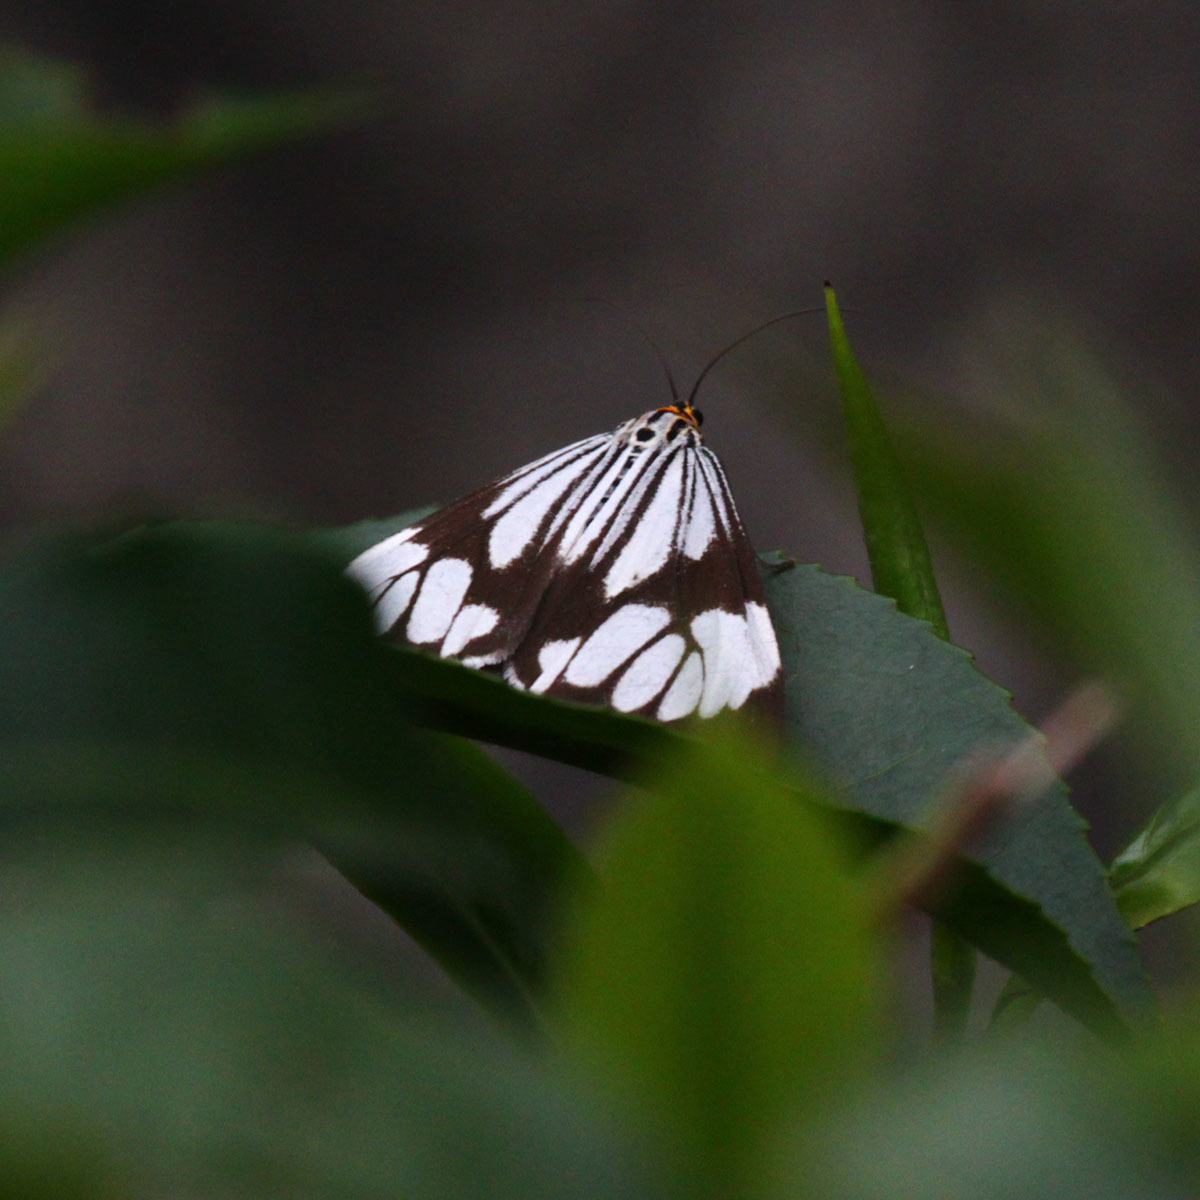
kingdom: Animalia
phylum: Arthropoda
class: Insecta
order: Lepidoptera
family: Erebidae
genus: Nyctemera
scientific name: Nyctemera coleta
